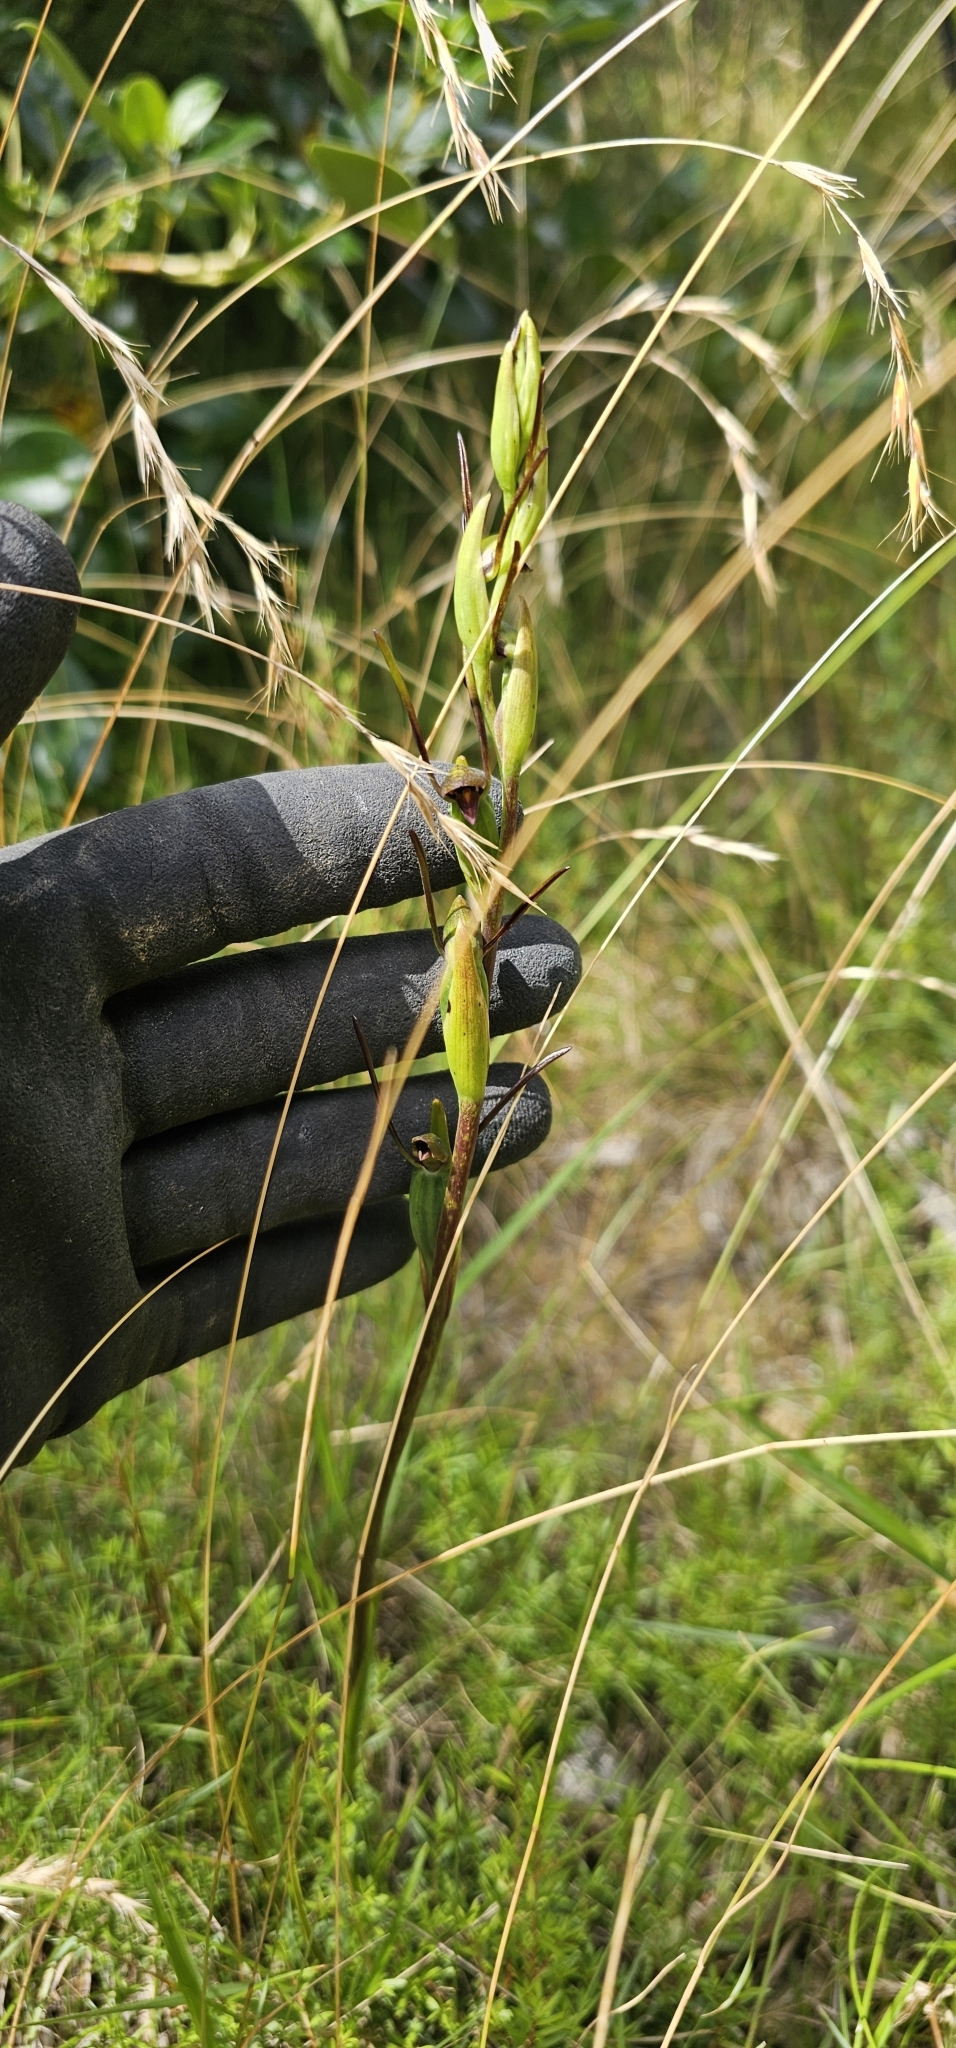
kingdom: Plantae
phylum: Tracheophyta
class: Liliopsida
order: Asparagales
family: Orchidaceae
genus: Orthoceras
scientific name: Orthoceras novae-zeelandiae
